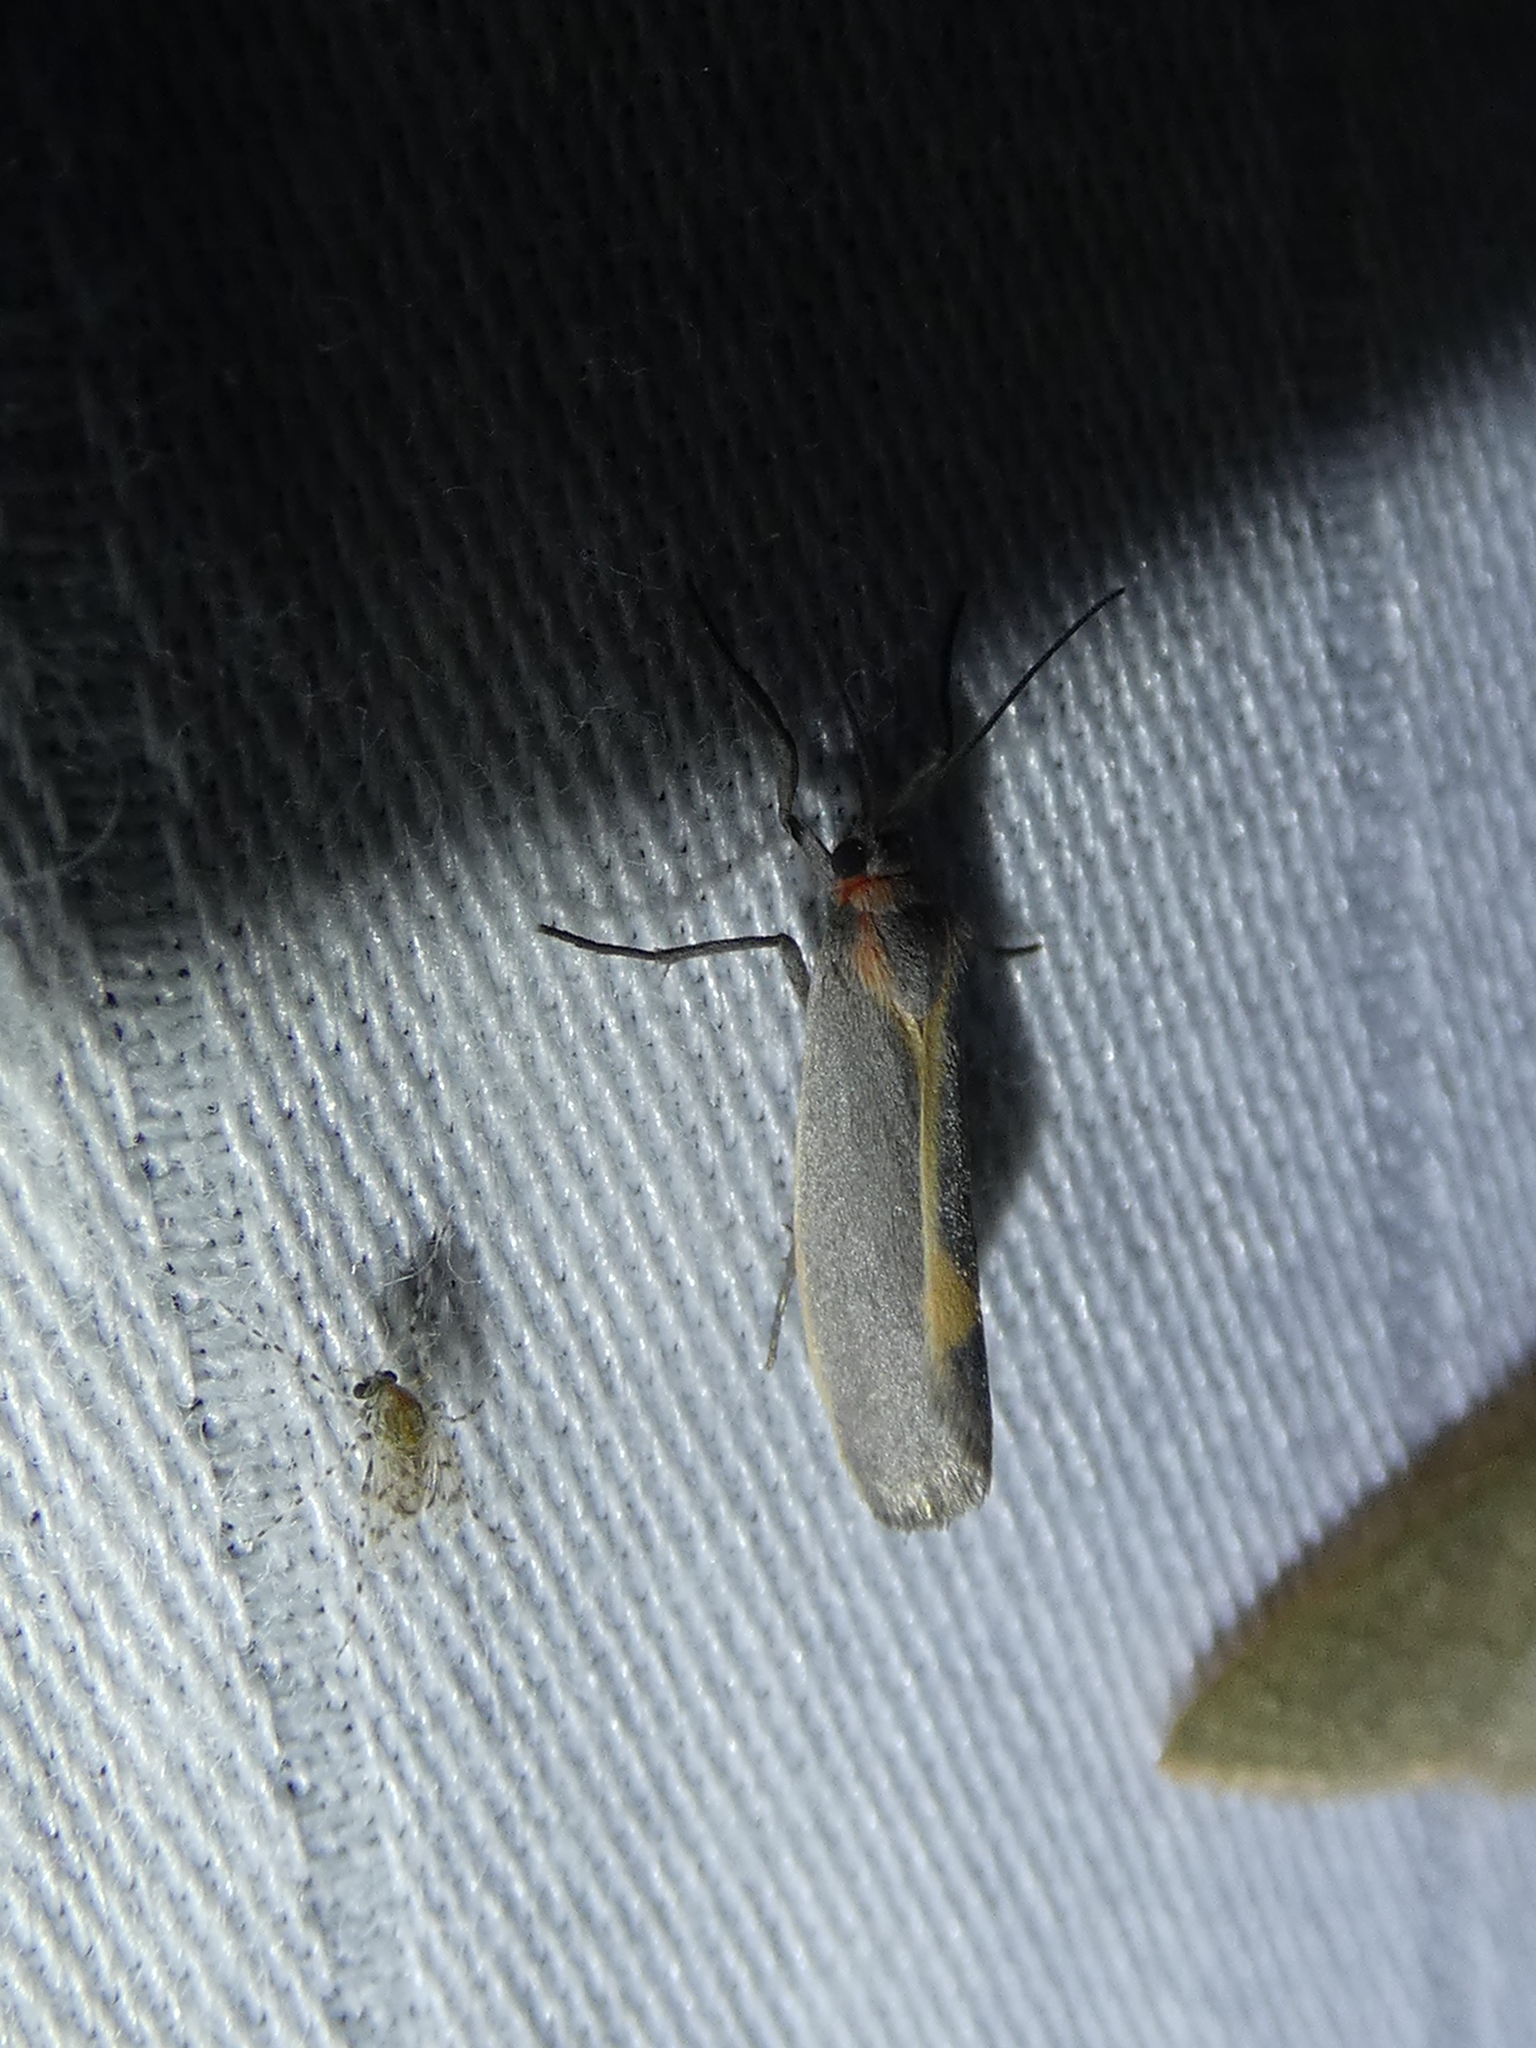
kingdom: Animalia
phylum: Arthropoda
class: Insecta
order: Lepidoptera
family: Erebidae
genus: Cisthene
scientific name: Cisthene plumbea
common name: Lead colored lichen moth
